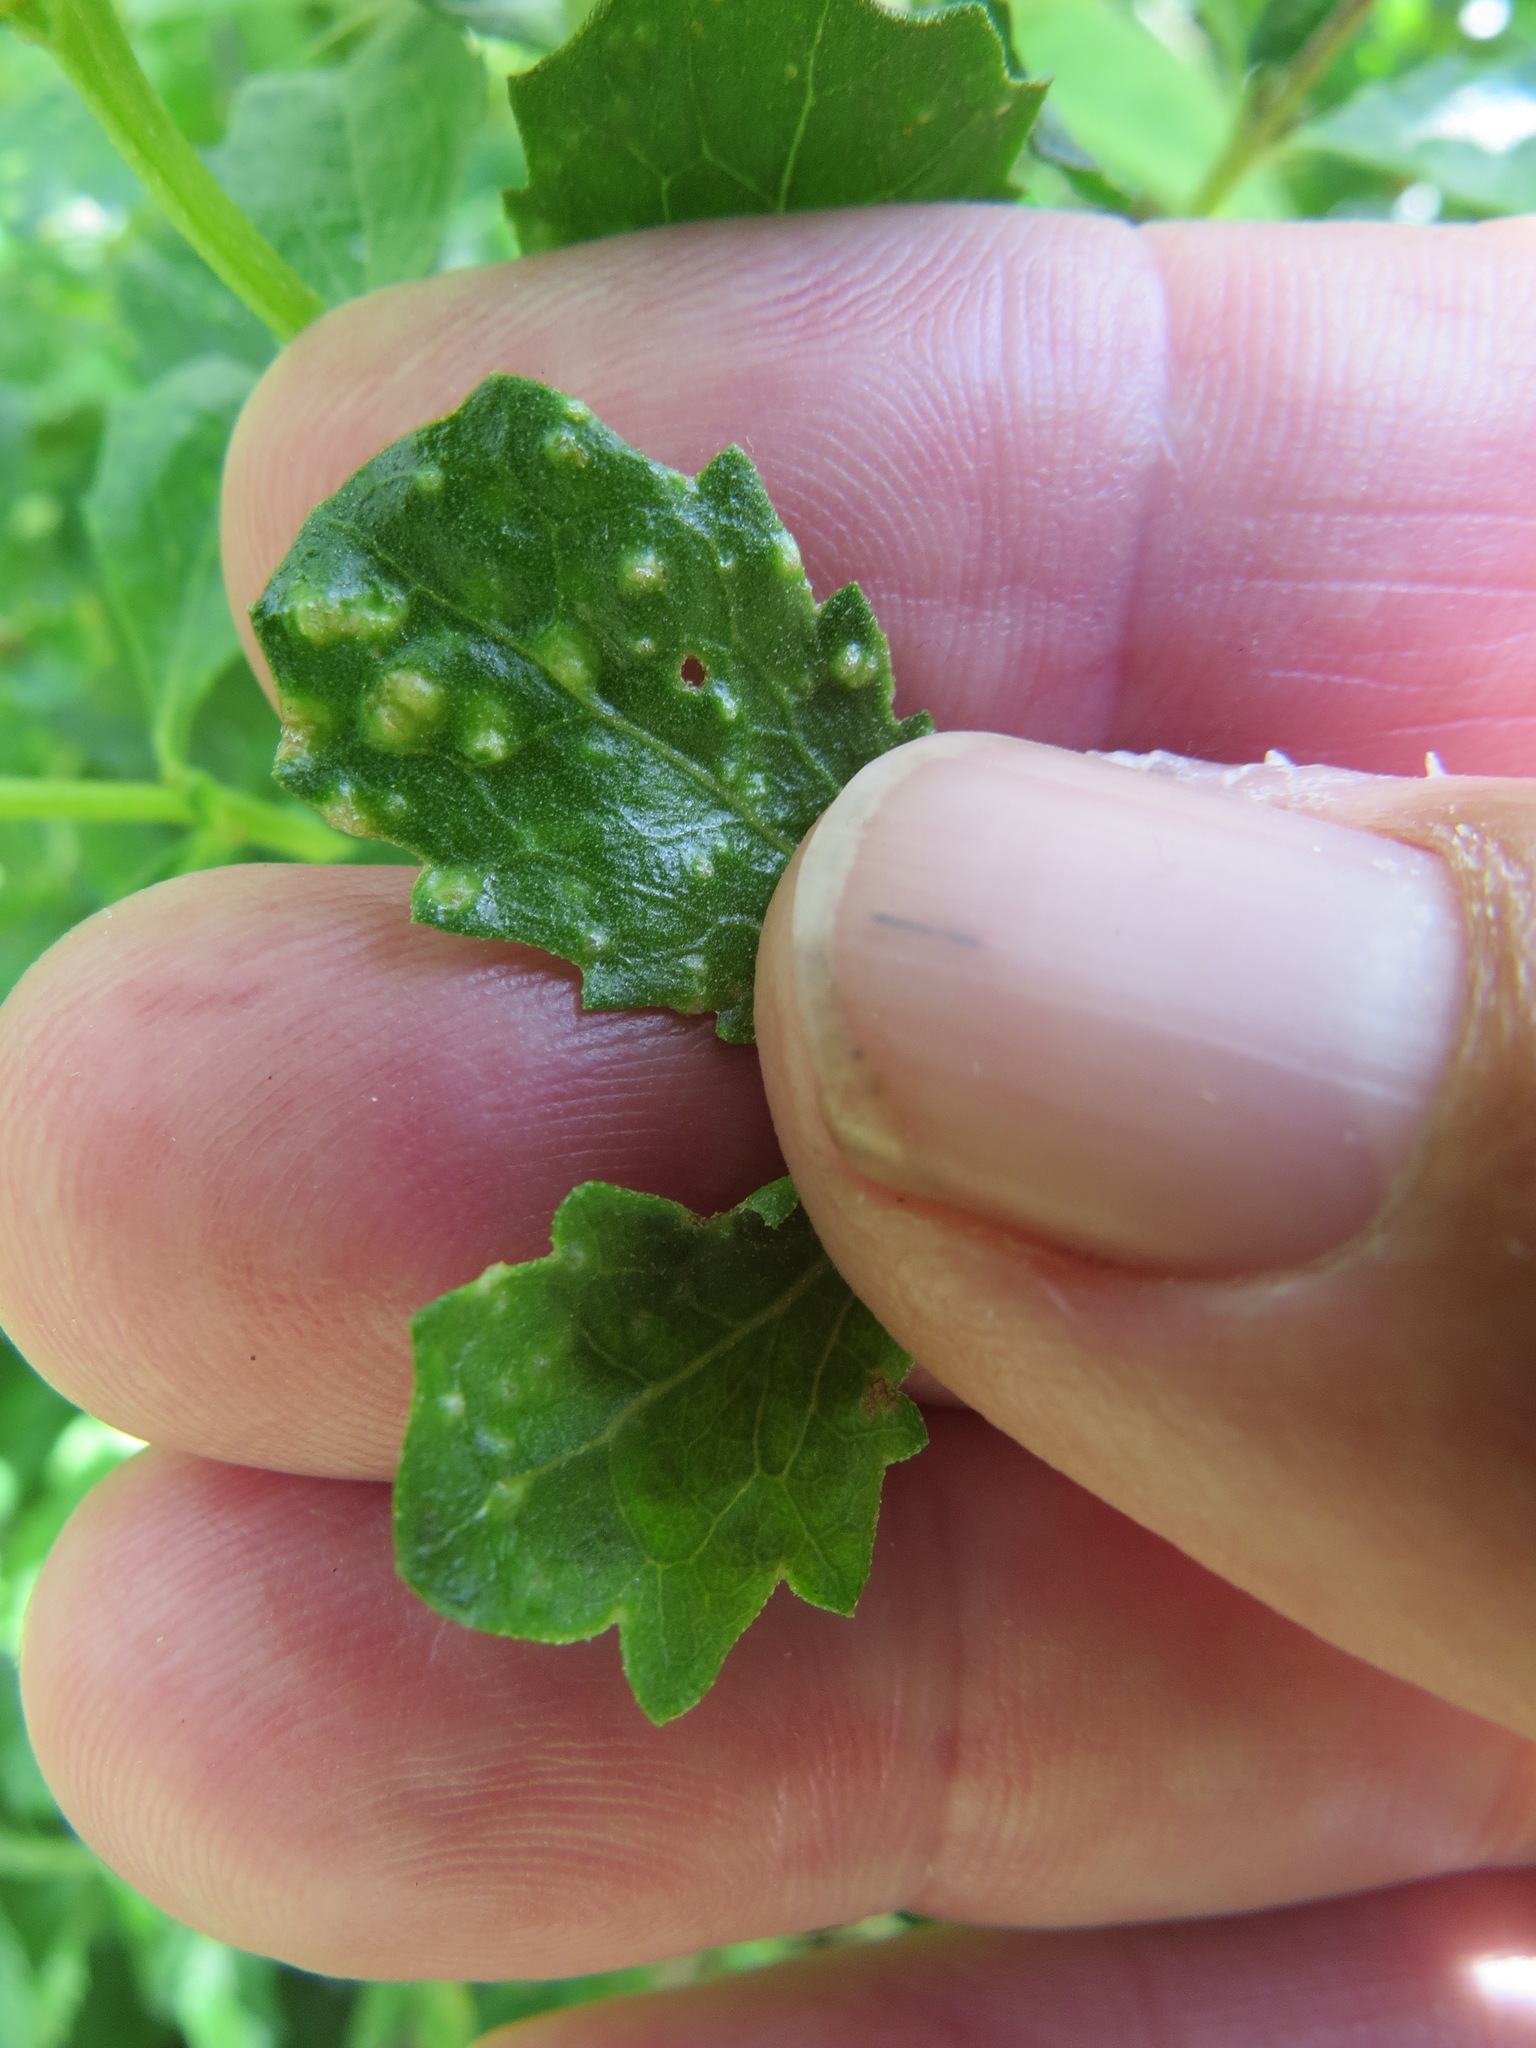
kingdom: Animalia
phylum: Arthropoda
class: Arachnida
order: Trombidiformes
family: Eriophyidae
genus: Aceria
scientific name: Aceria
